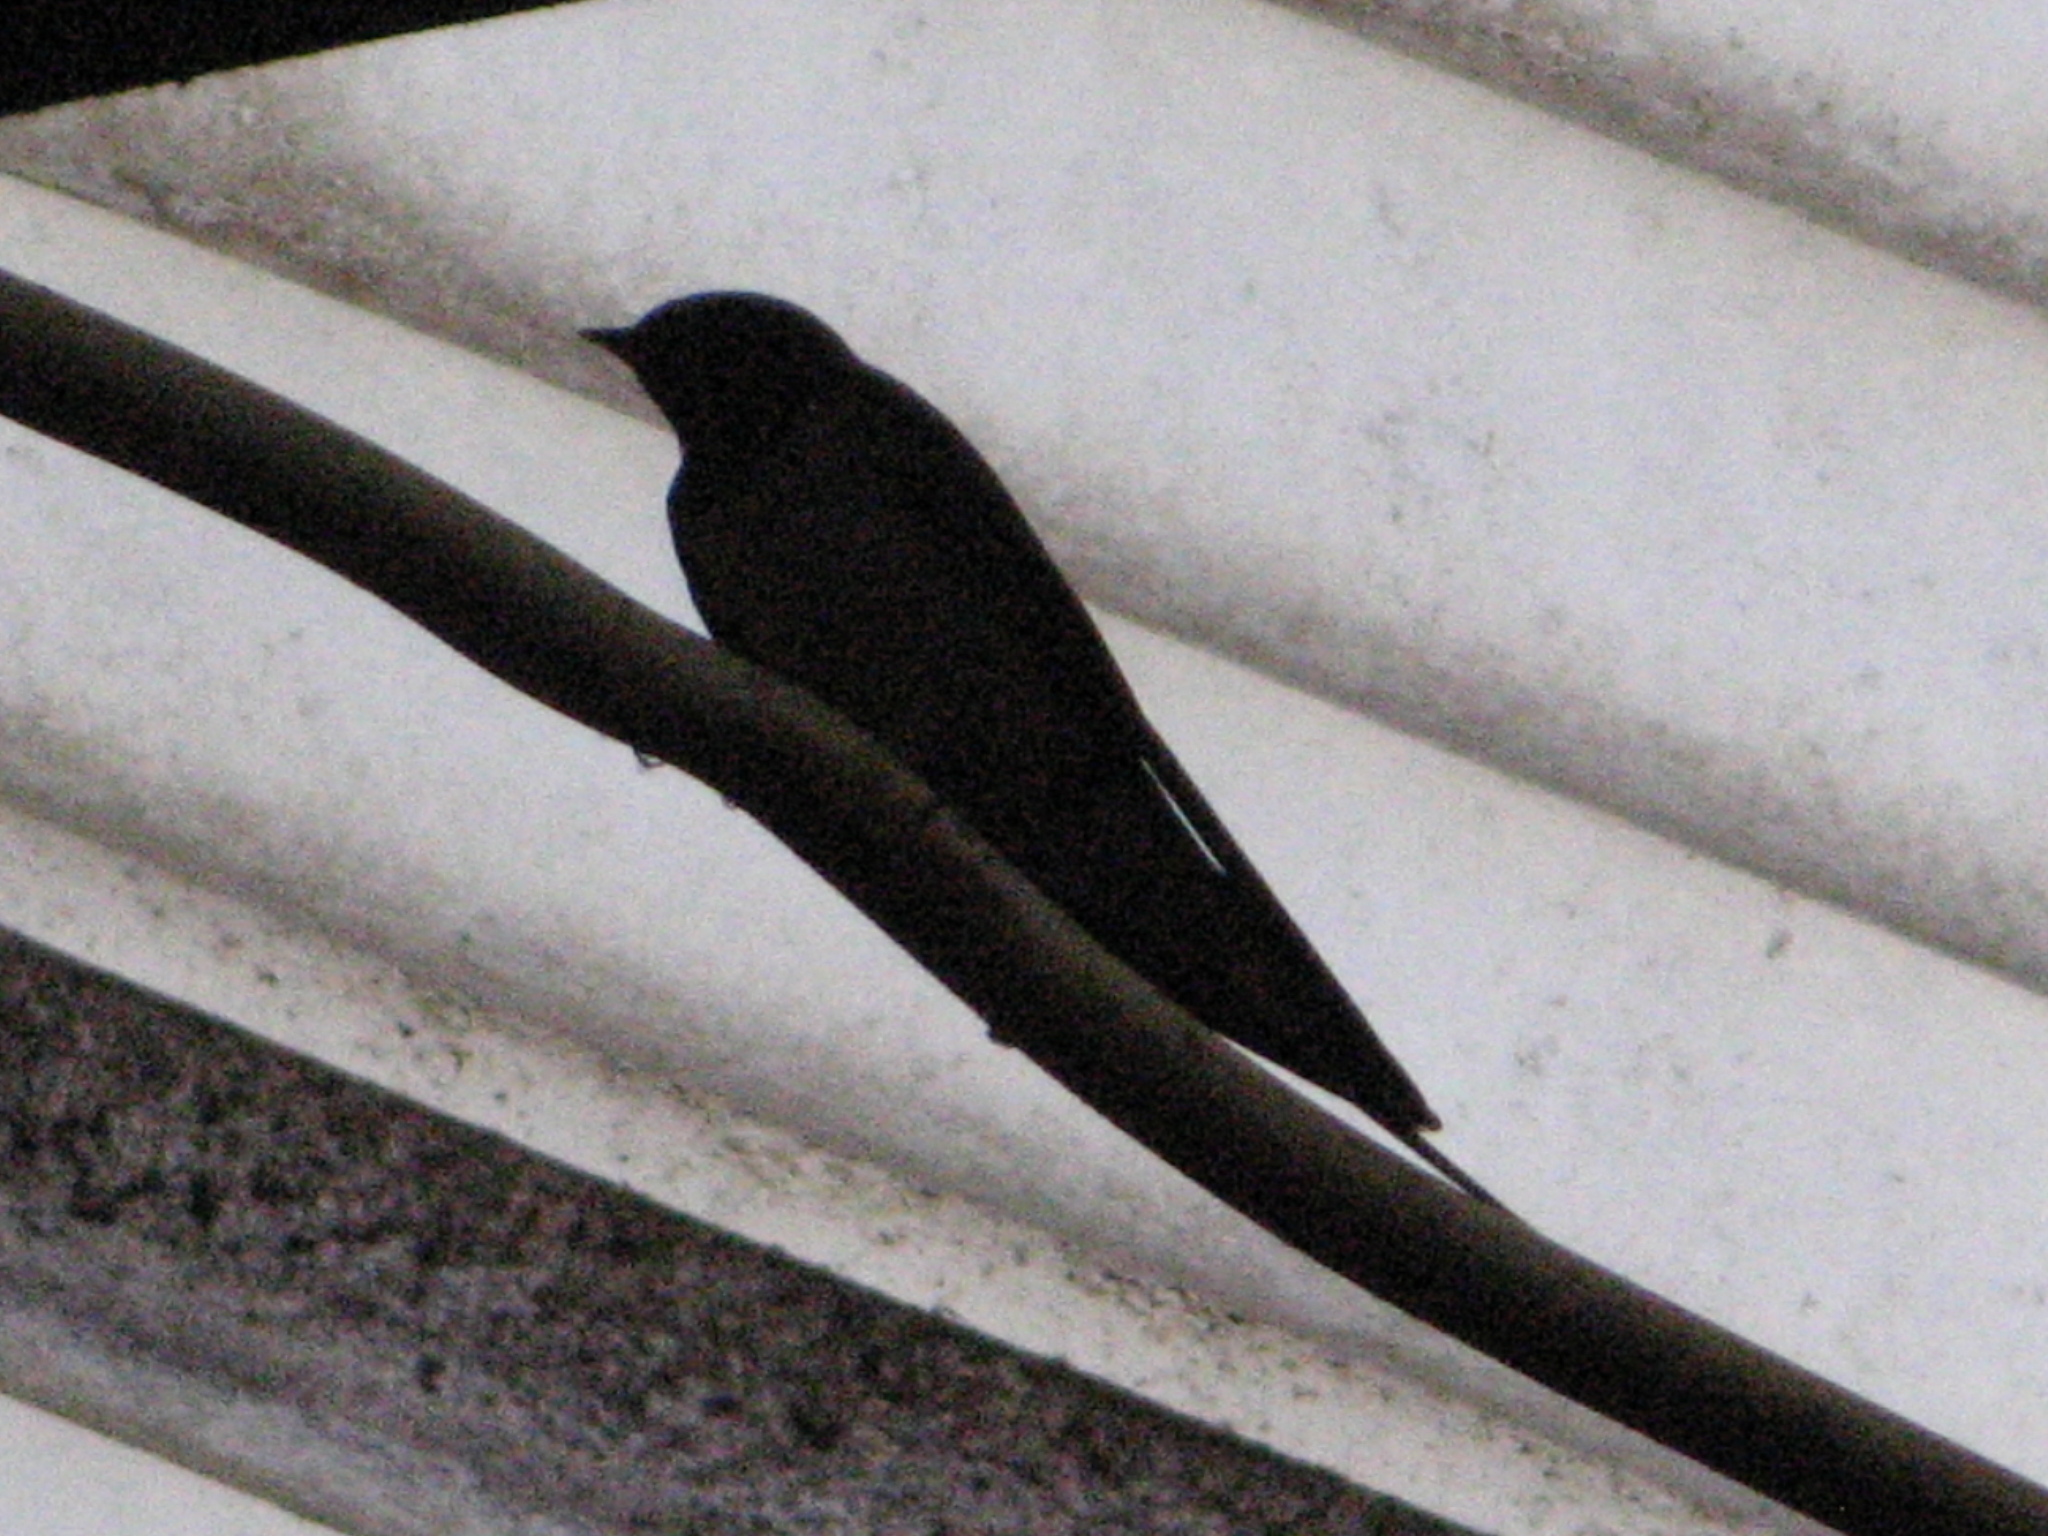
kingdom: Animalia
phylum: Chordata
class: Aves
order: Passeriformes
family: Hirundinidae
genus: Hirundo
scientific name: Hirundo rustica
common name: Barn swallow
